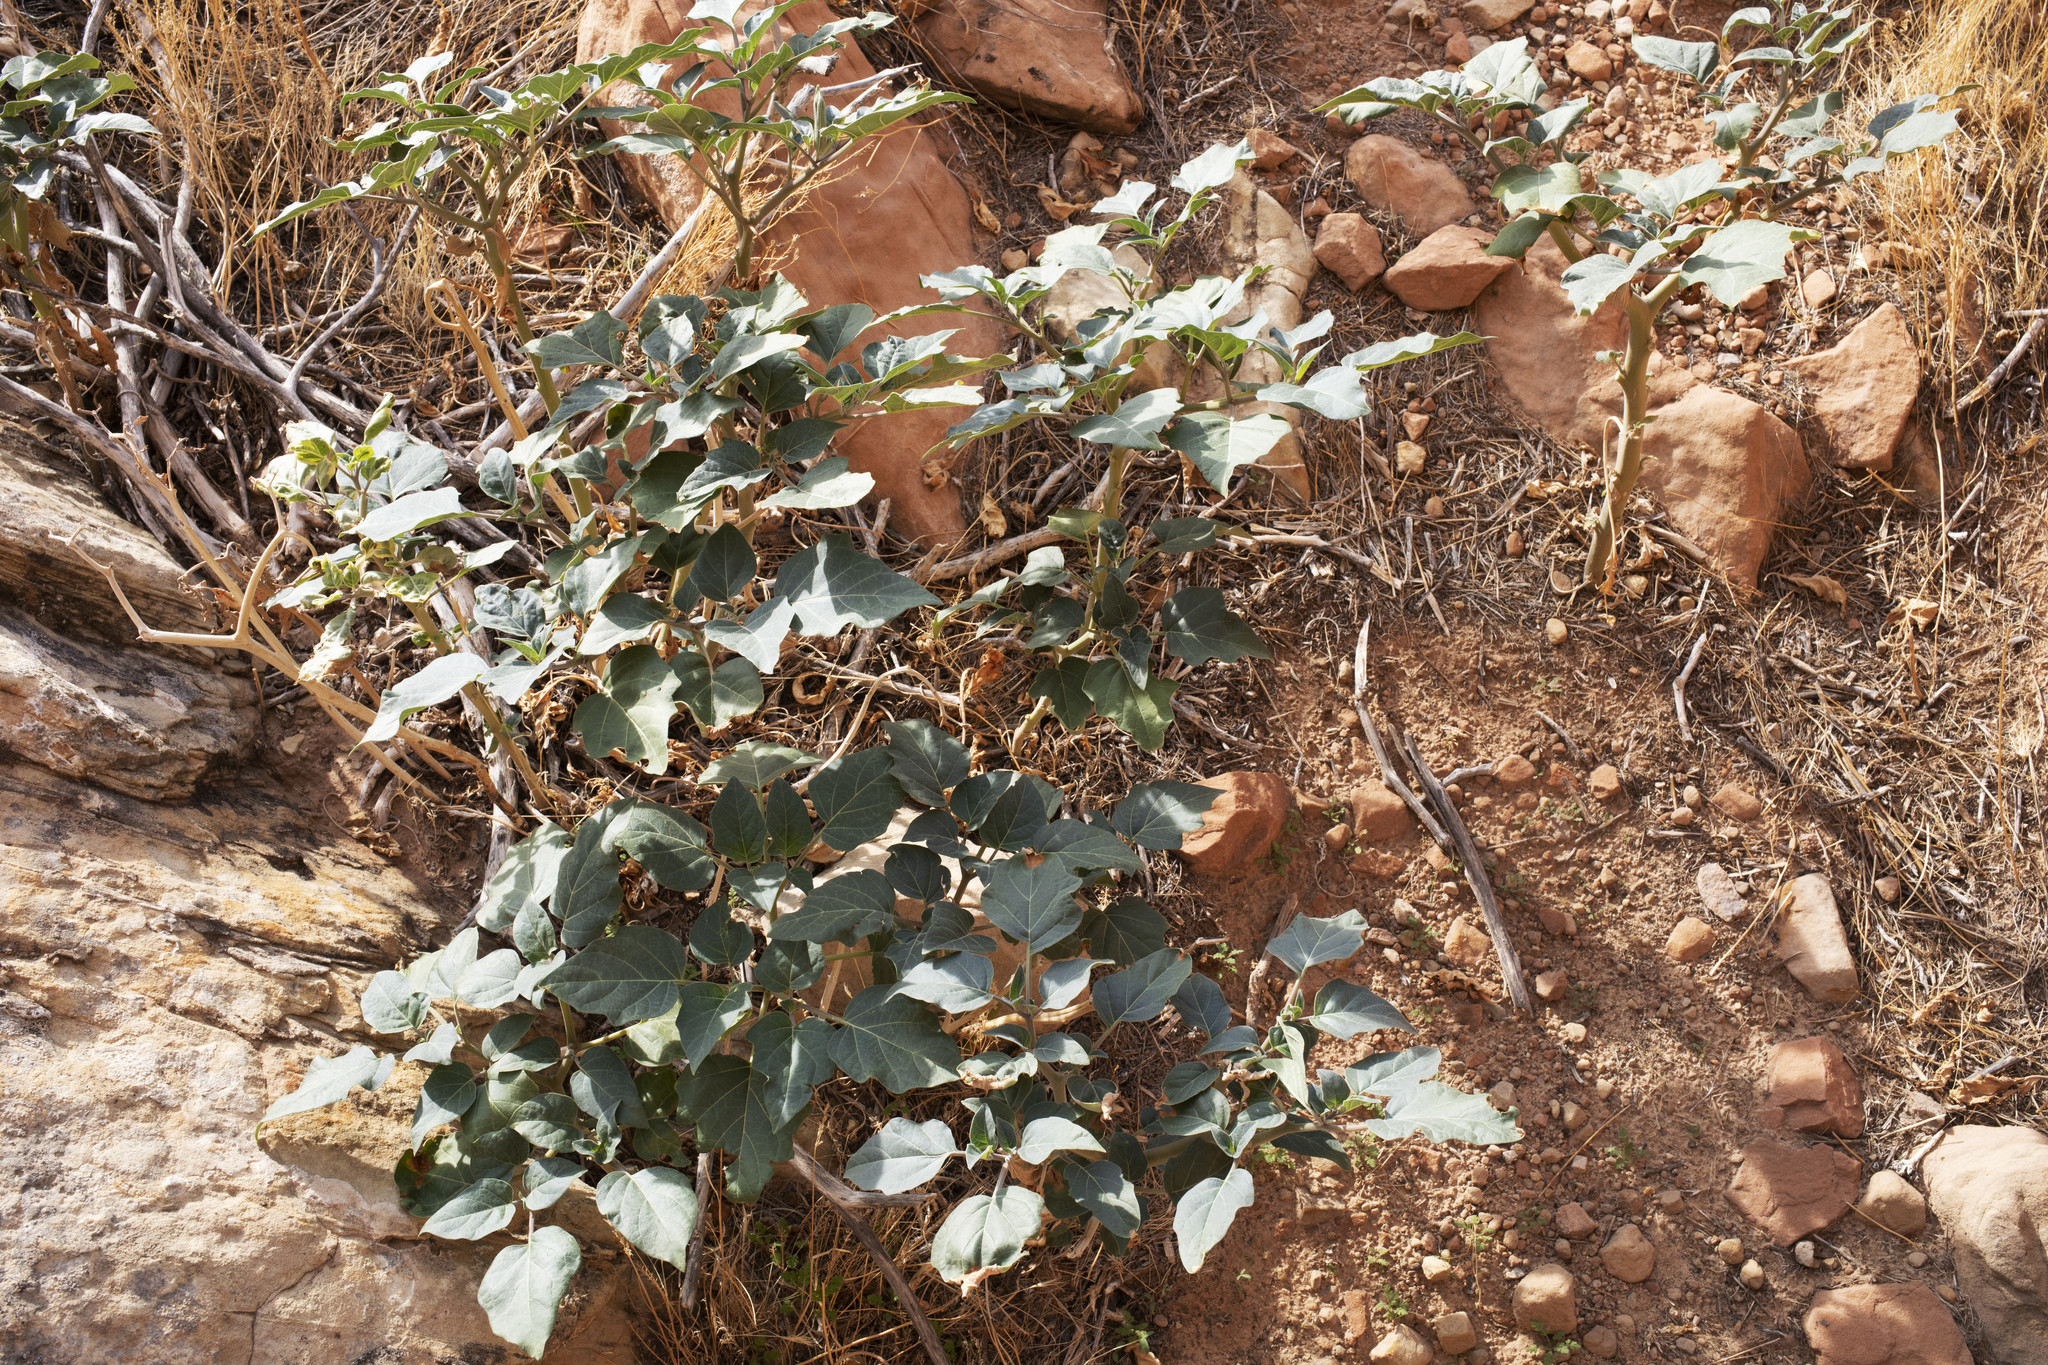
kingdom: Plantae
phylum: Tracheophyta
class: Magnoliopsida
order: Solanales
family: Solanaceae
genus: Datura
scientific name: Datura wrightii
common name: Sacred thorn-apple
